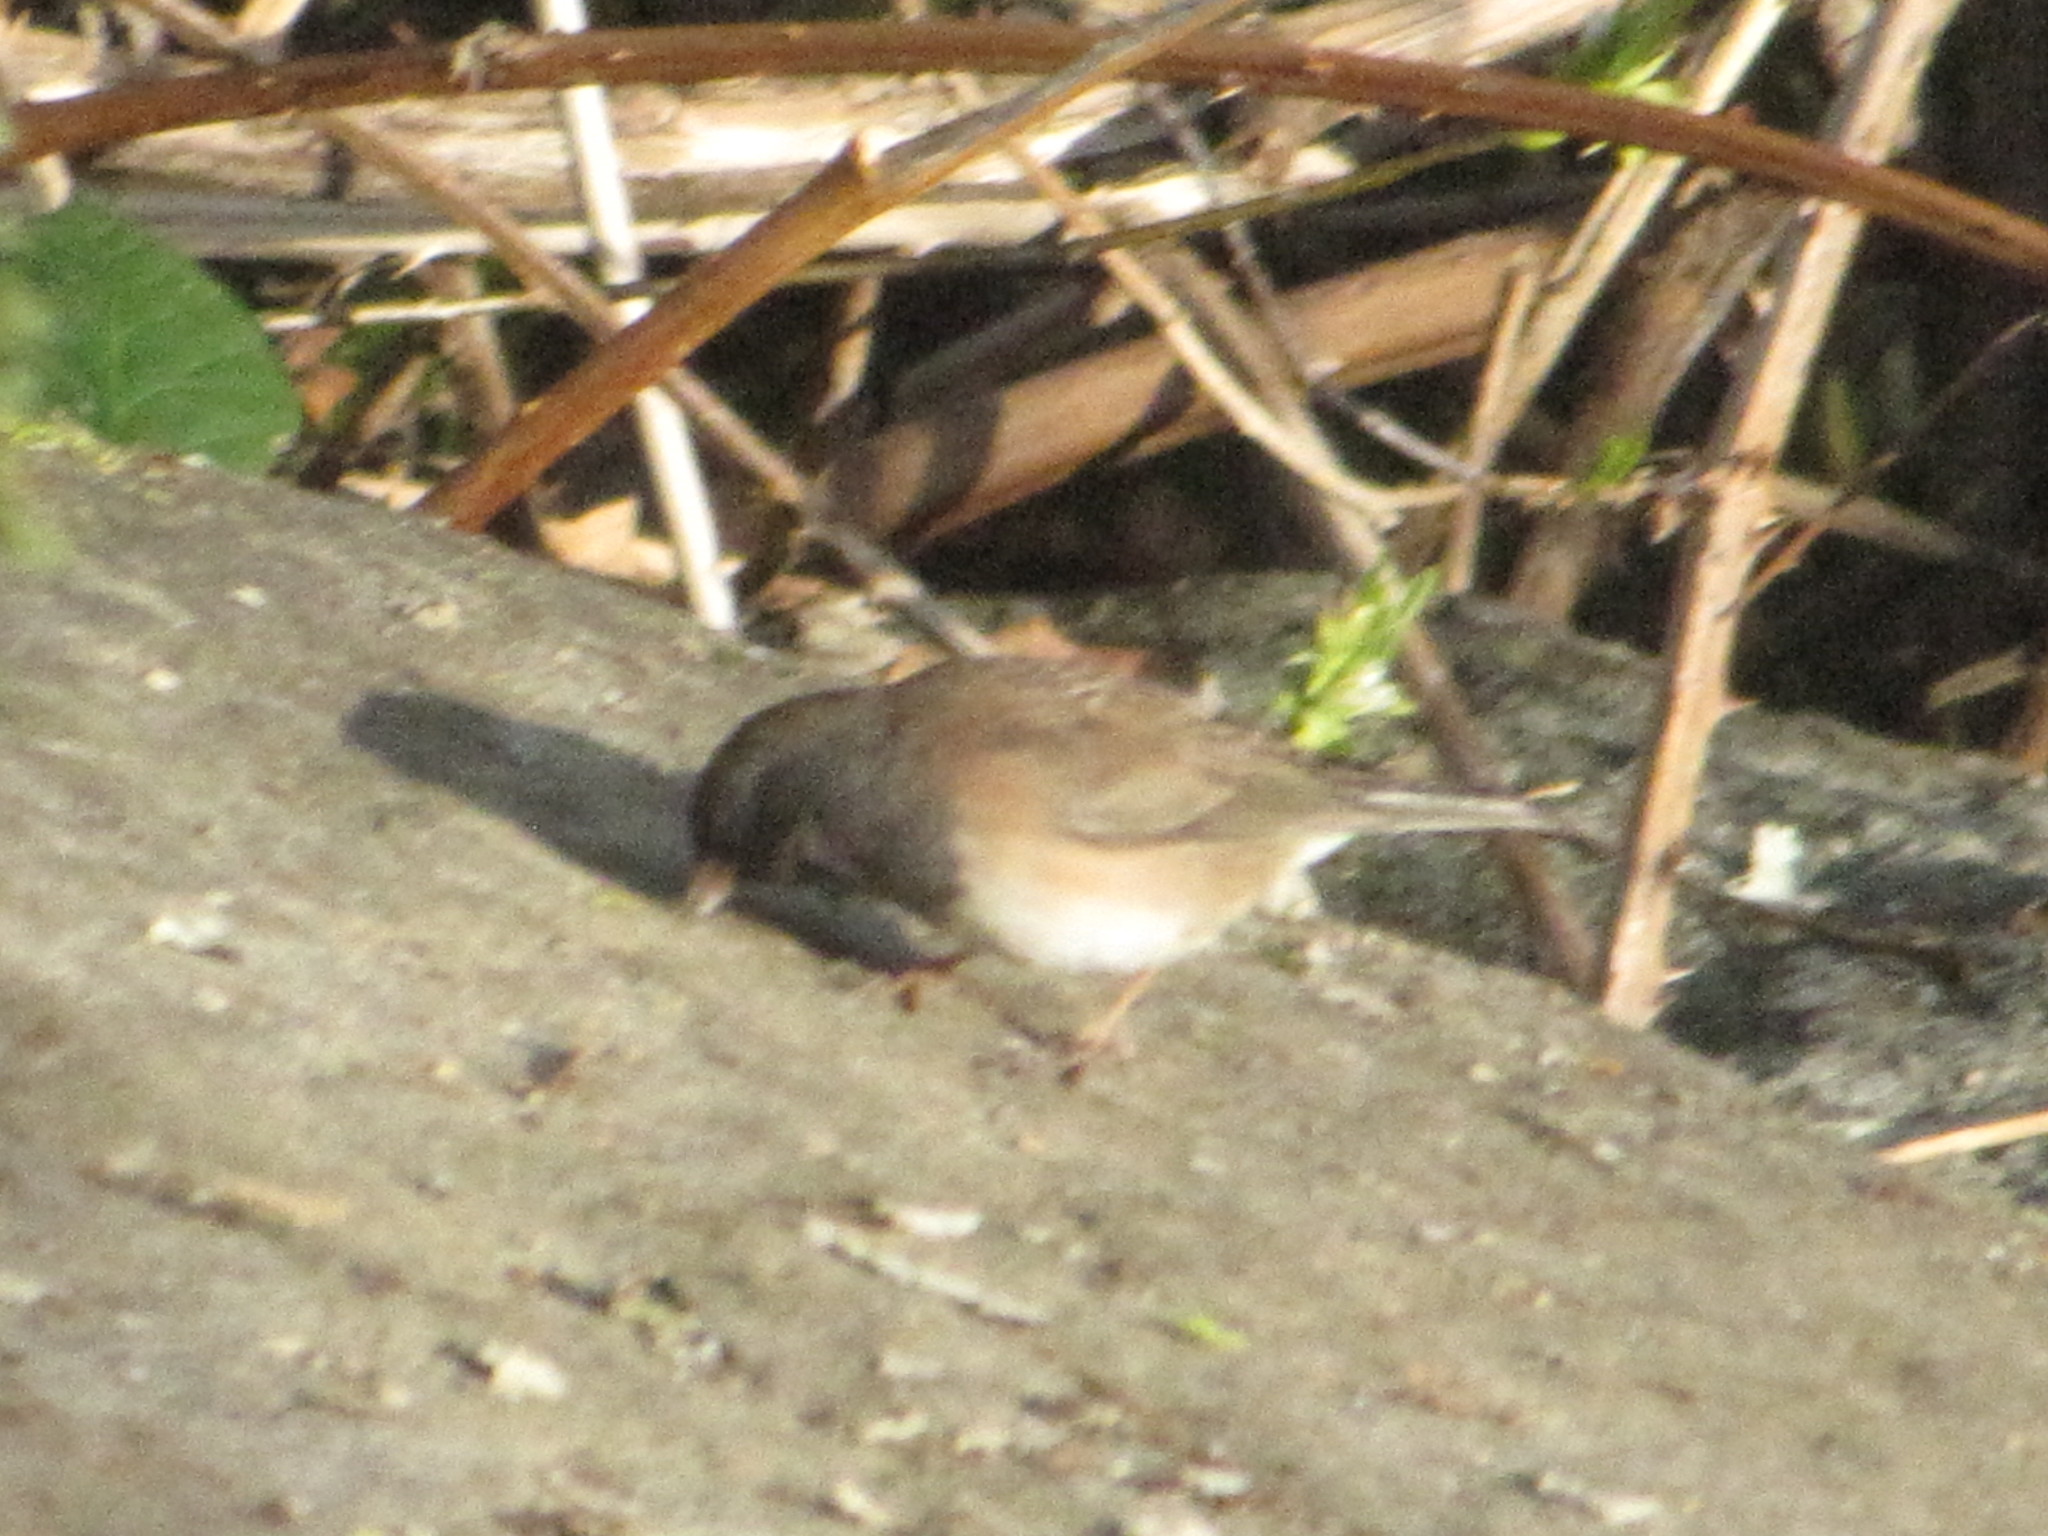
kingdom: Animalia
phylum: Chordata
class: Aves
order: Passeriformes
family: Passerellidae
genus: Junco
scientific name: Junco hyemalis
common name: Dark-eyed junco
